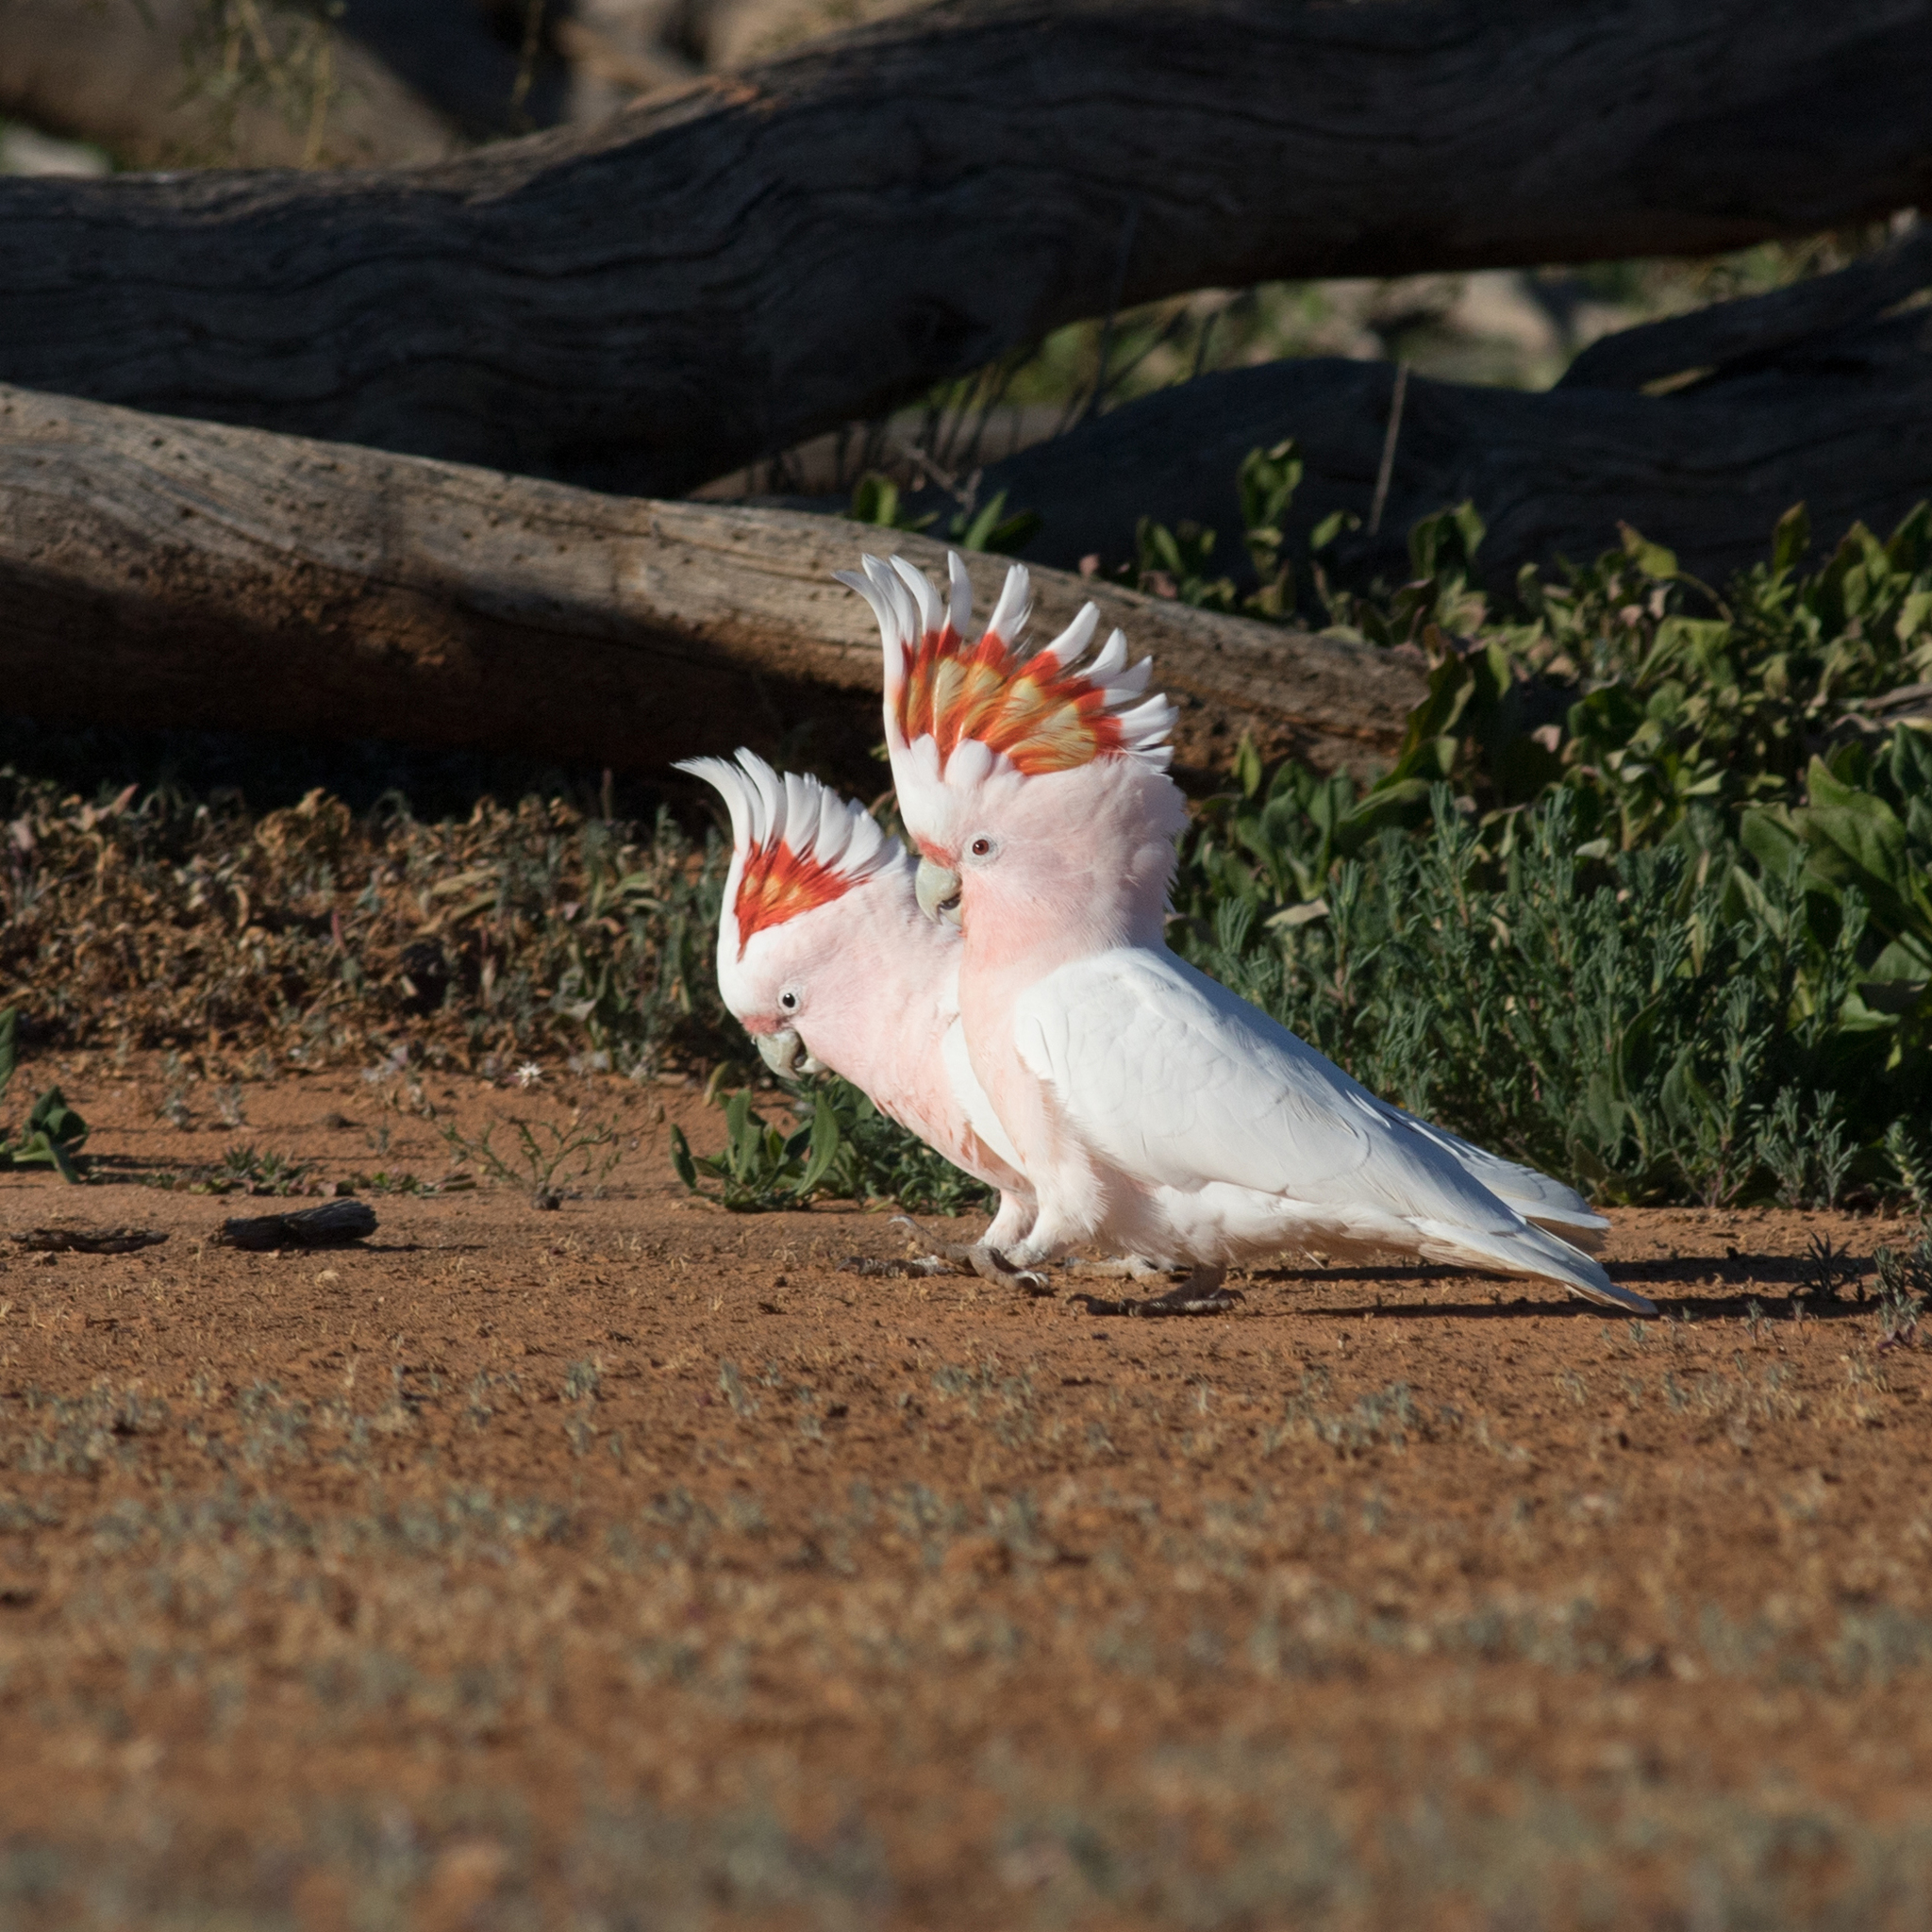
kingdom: Animalia
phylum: Chordata
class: Aves
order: Psittaciformes
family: Psittacidae
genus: Cacatua
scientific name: Cacatua leadbeateri
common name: Major mitchell's cockatoo
